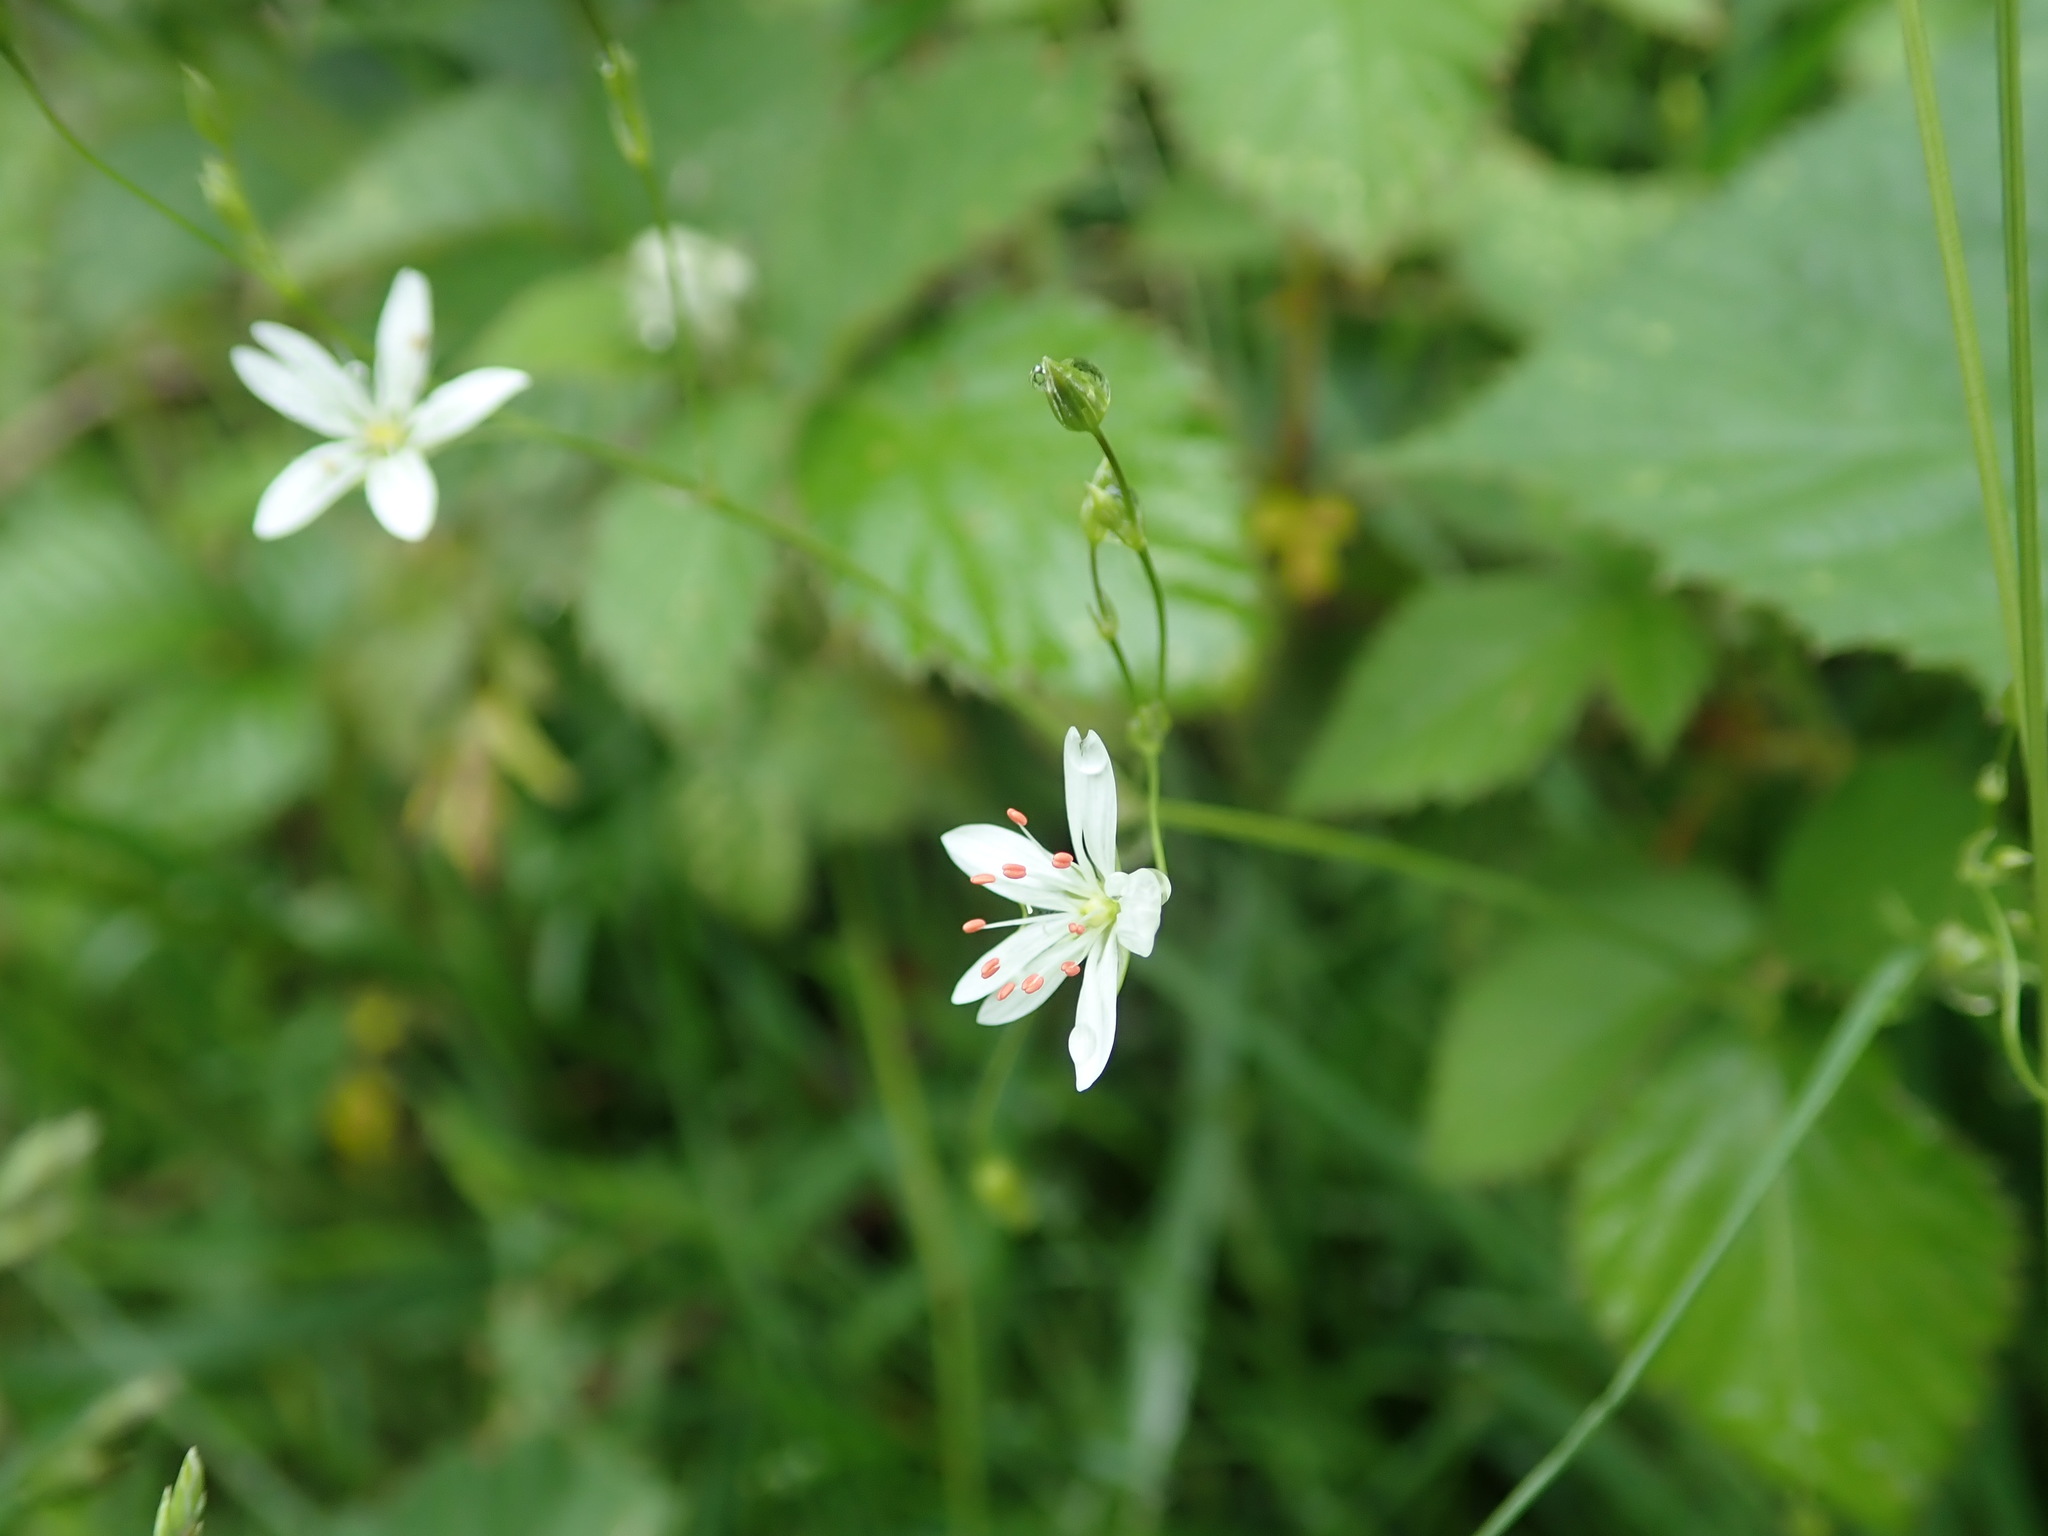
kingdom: Plantae
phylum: Tracheophyta
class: Magnoliopsida
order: Caryophyllales
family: Caryophyllaceae
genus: Stellaria
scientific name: Stellaria graminea
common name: Grass-like starwort
